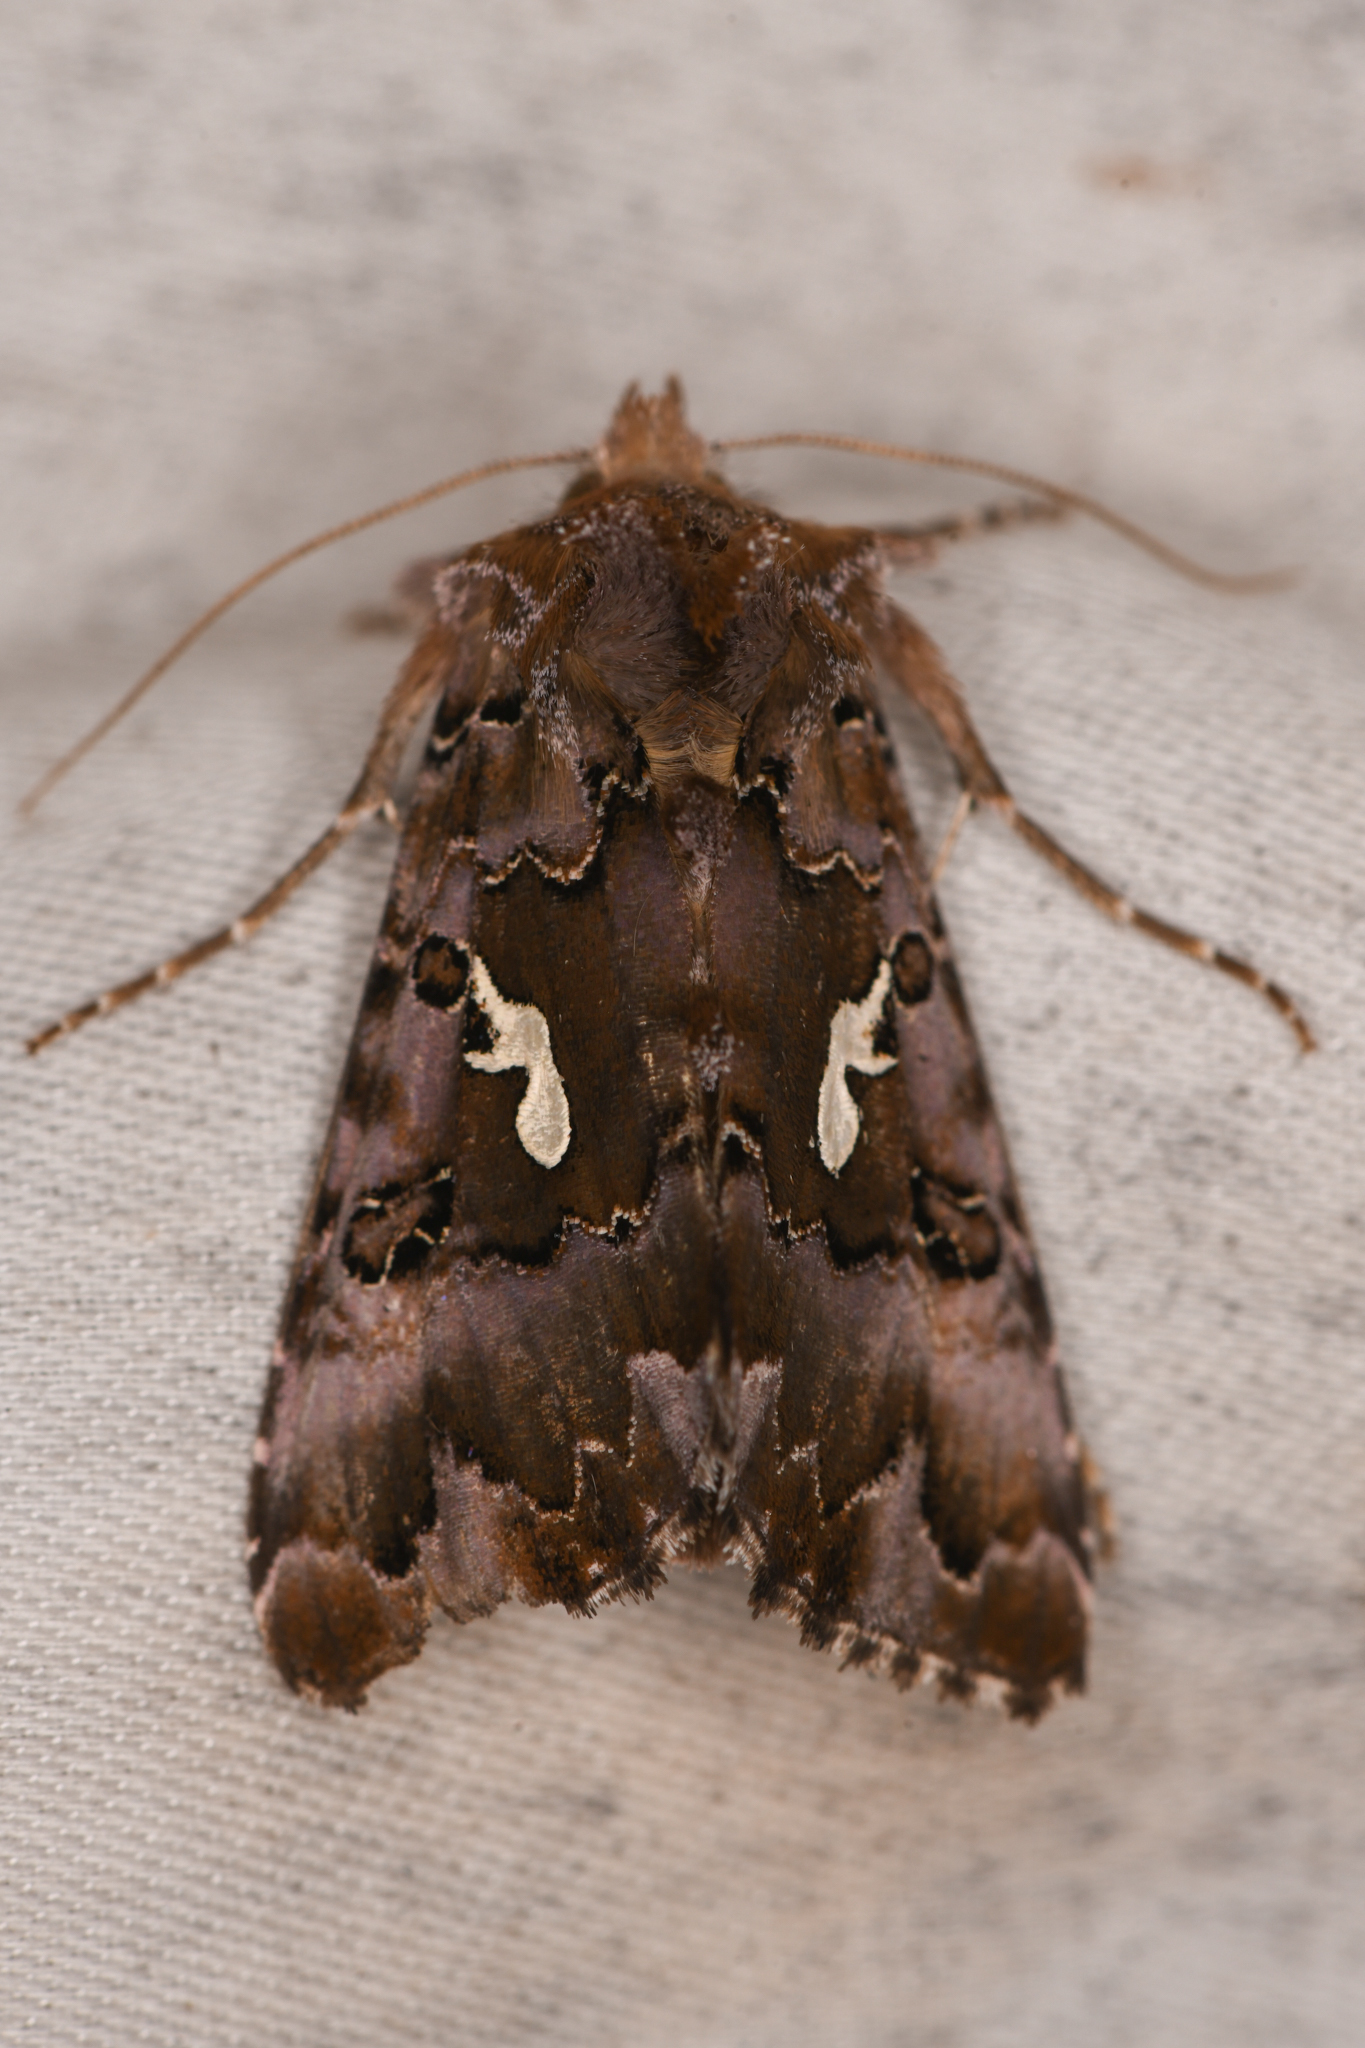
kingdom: Animalia
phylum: Arthropoda
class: Insecta
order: Lepidoptera
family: Noctuidae
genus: Autographa
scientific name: Autographa corusca
